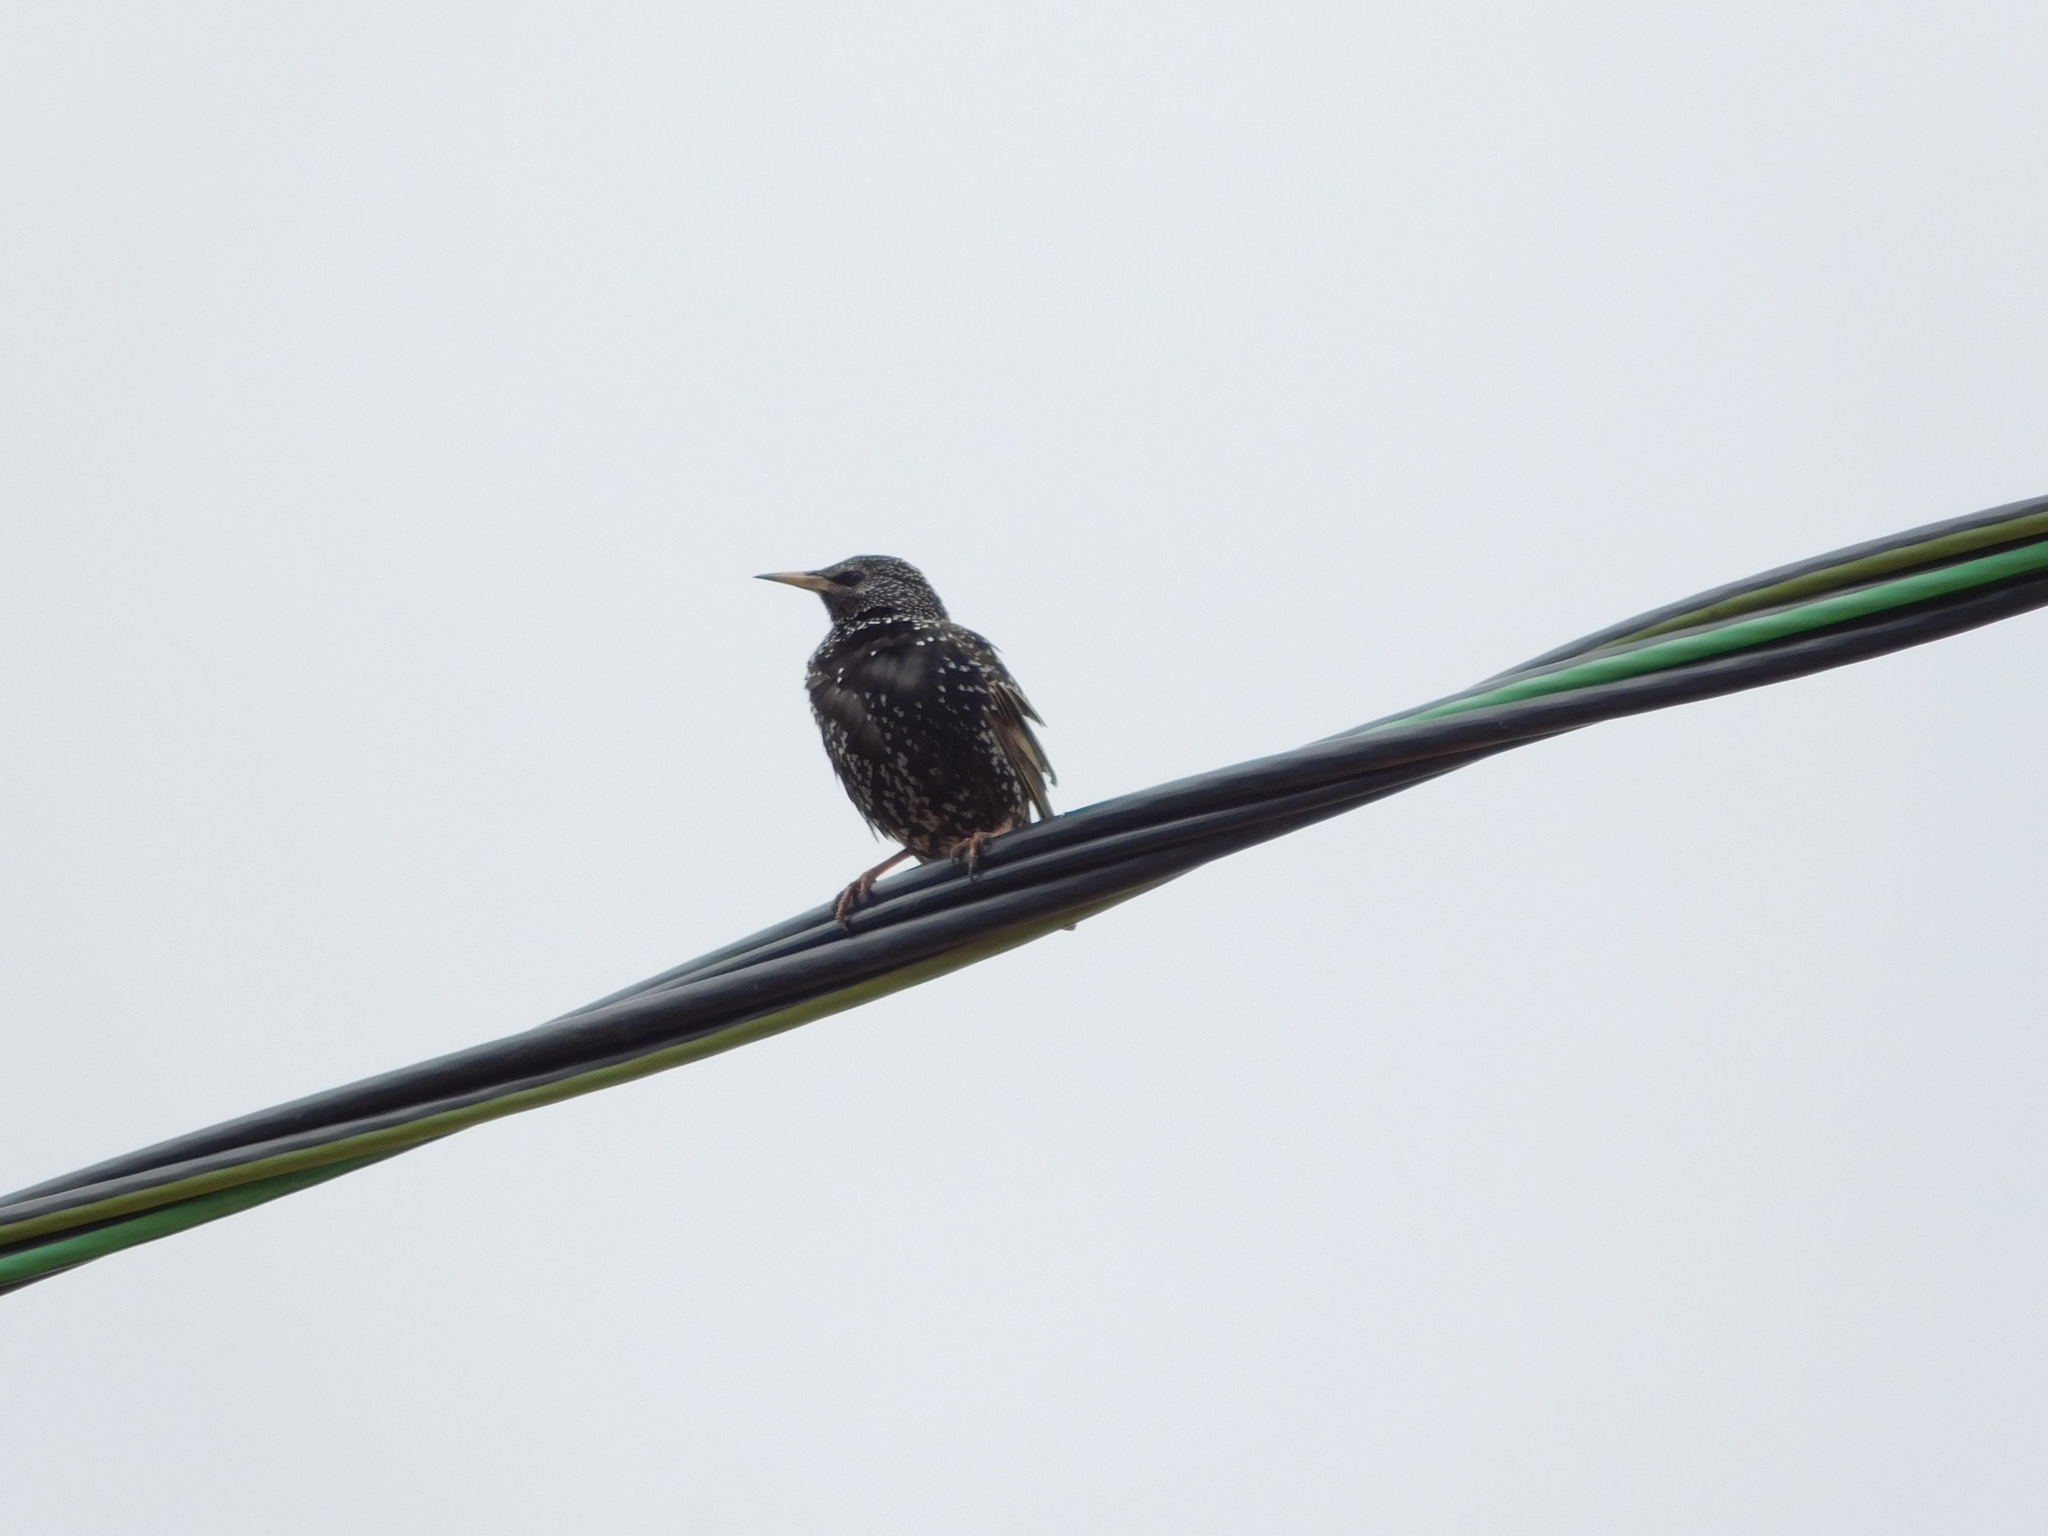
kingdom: Animalia
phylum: Chordata
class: Aves
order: Passeriformes
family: Sturnidae
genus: Sturnus
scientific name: Sturnus vulgaris
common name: Common starling
